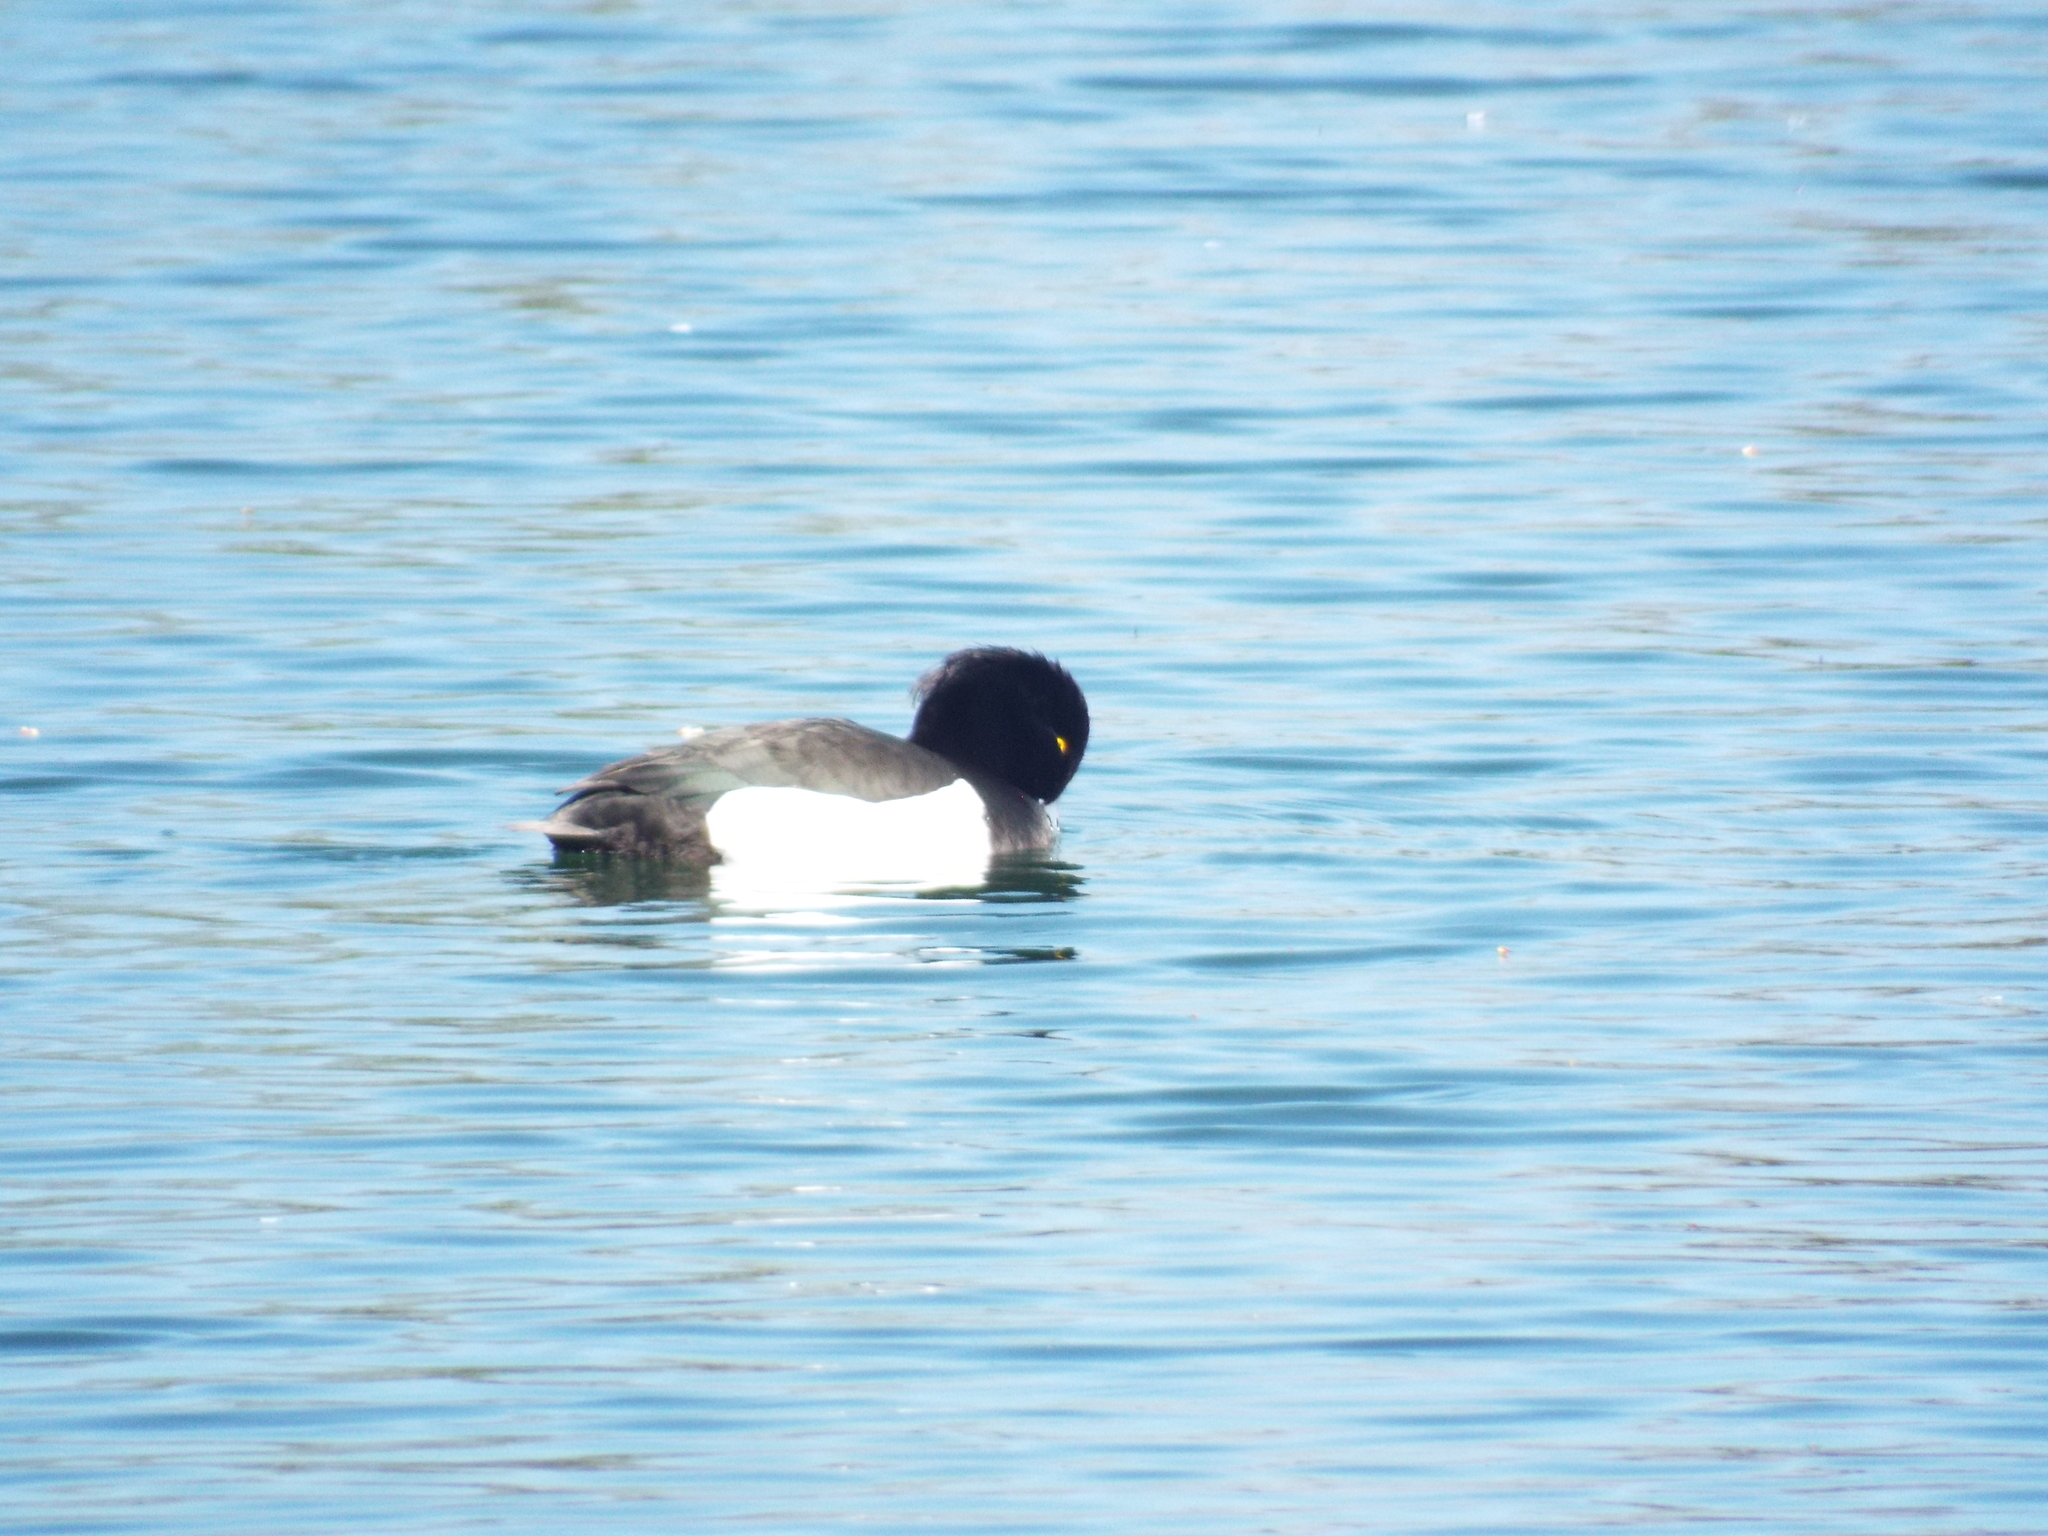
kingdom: Animalia
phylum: Chordata
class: Aves
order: Anseriformes
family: Anatidae
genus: Aythya
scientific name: Aythya fuligula
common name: Tufted duck
